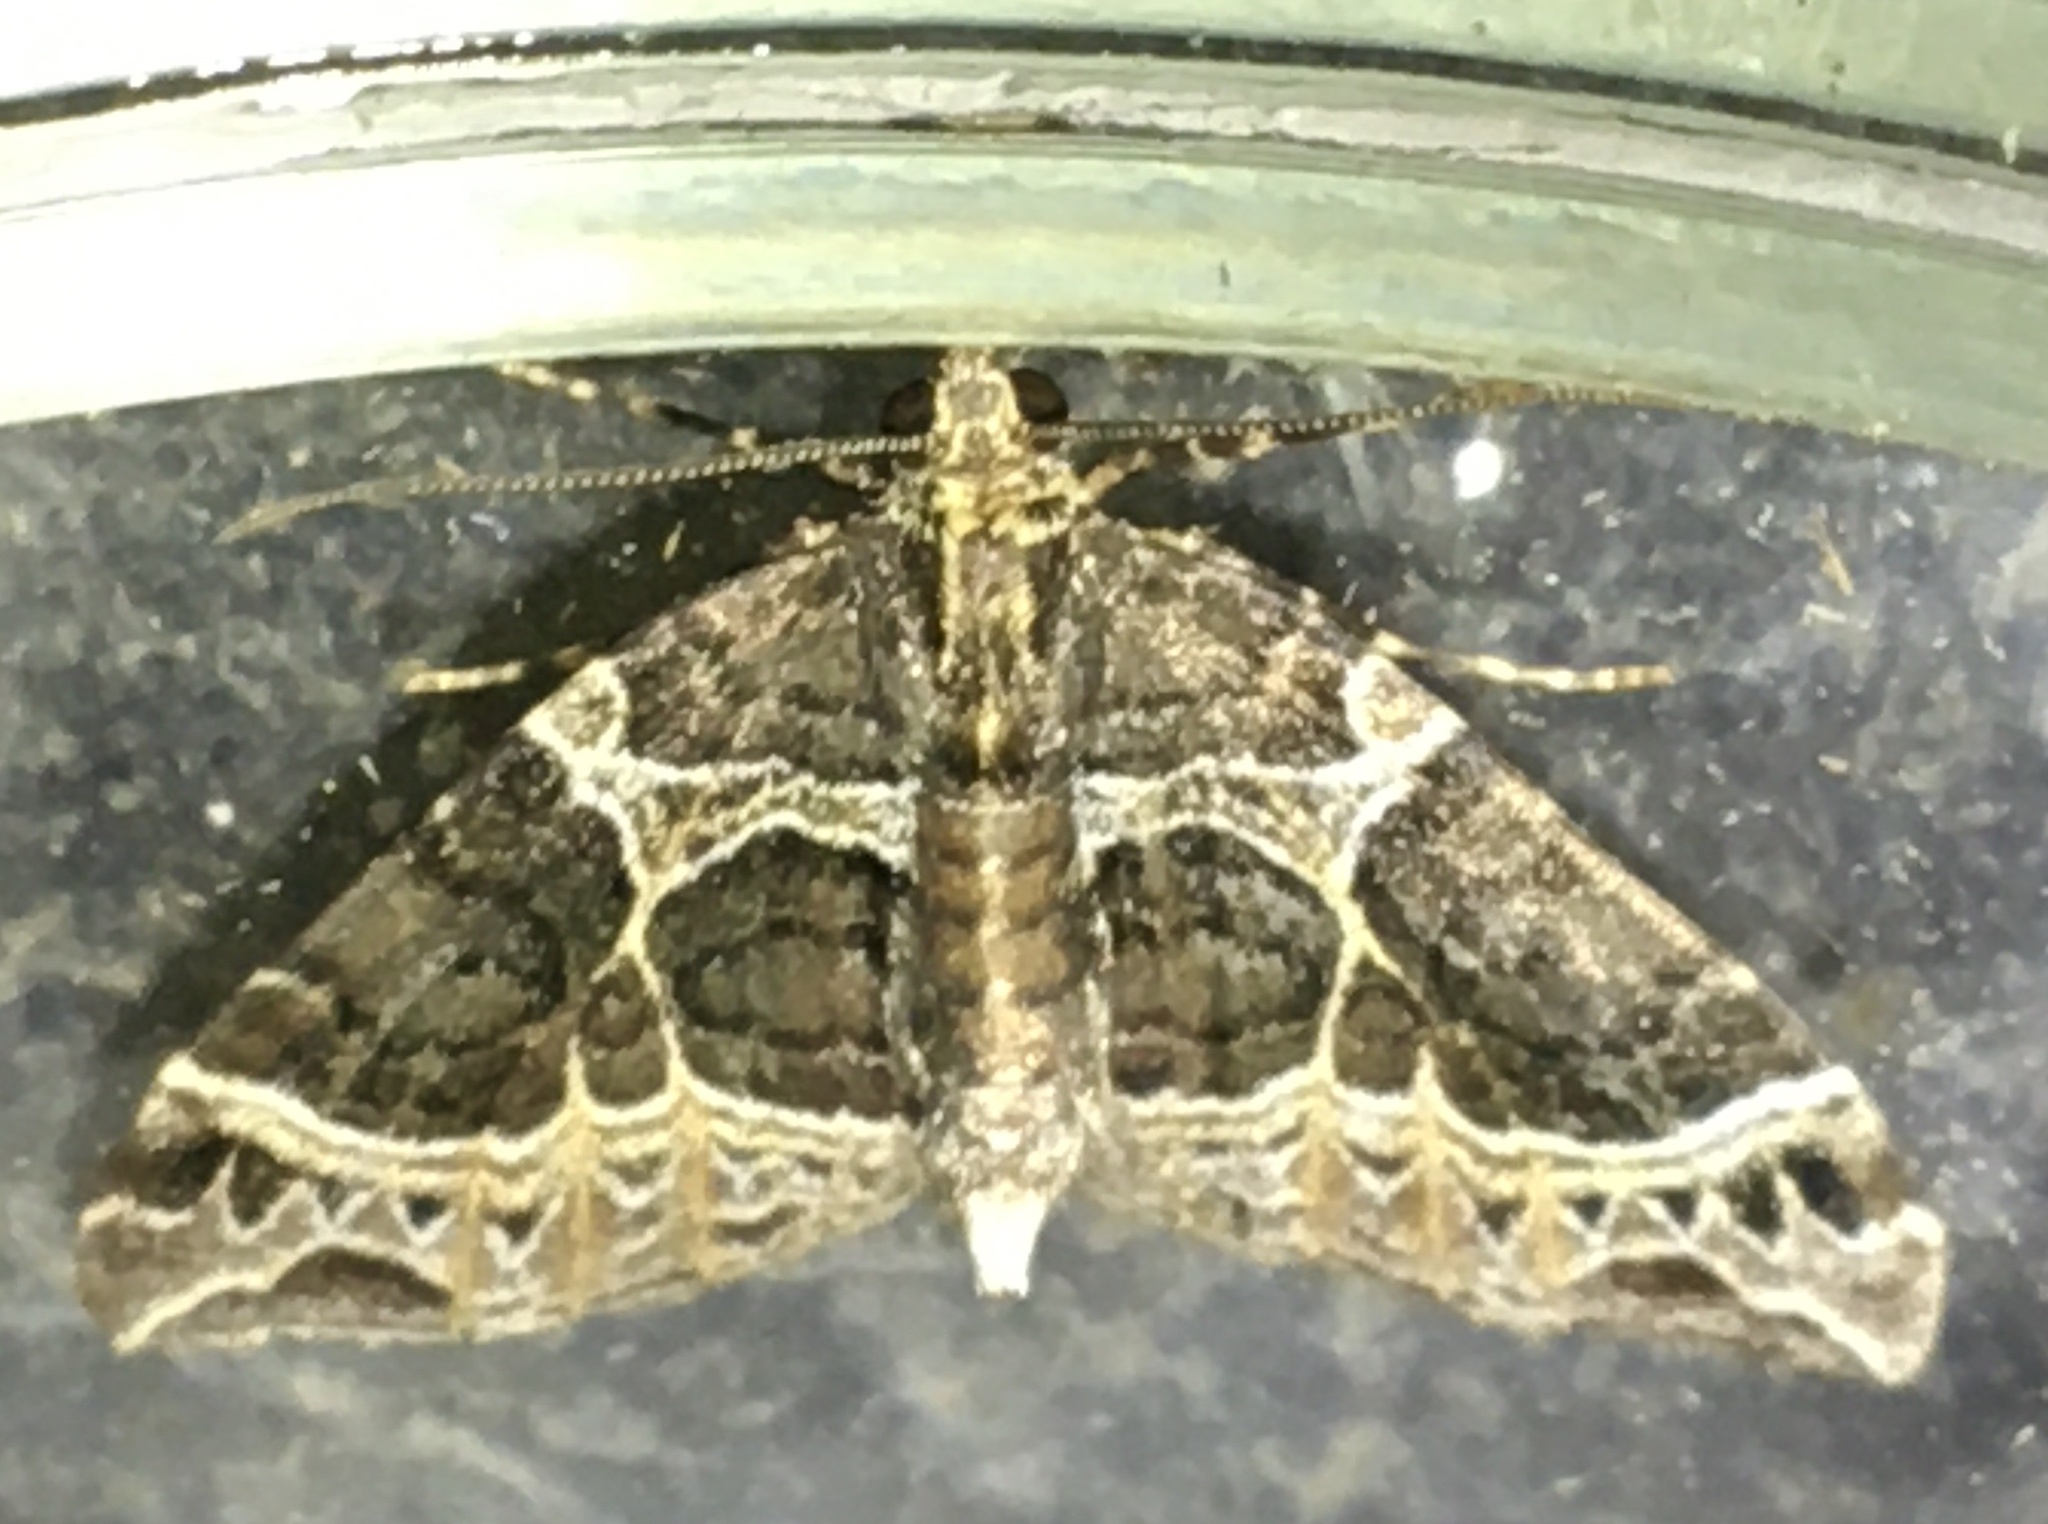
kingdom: Animalia
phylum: Arthropoda
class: Insecta
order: Lepidoptera
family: Geometridae
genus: Ecliptopera
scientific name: Ecliptopera silaceata
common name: Small phoenix
